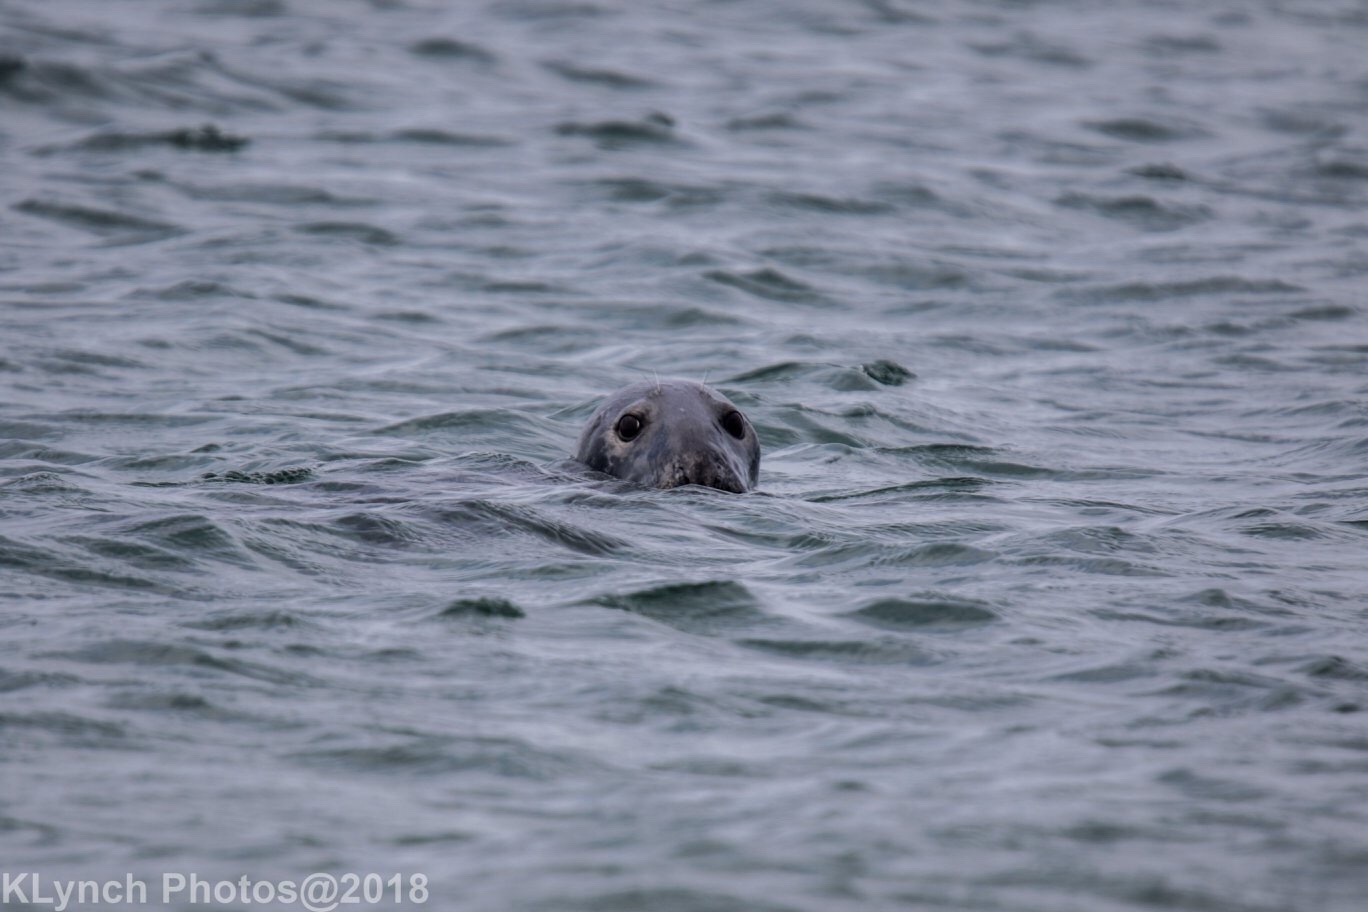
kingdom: Animalia
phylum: Chordata
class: Mammalia
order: Carnivora
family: Phocidae
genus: Halichoerus
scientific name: Halichoerus grypus
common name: Grey seal
